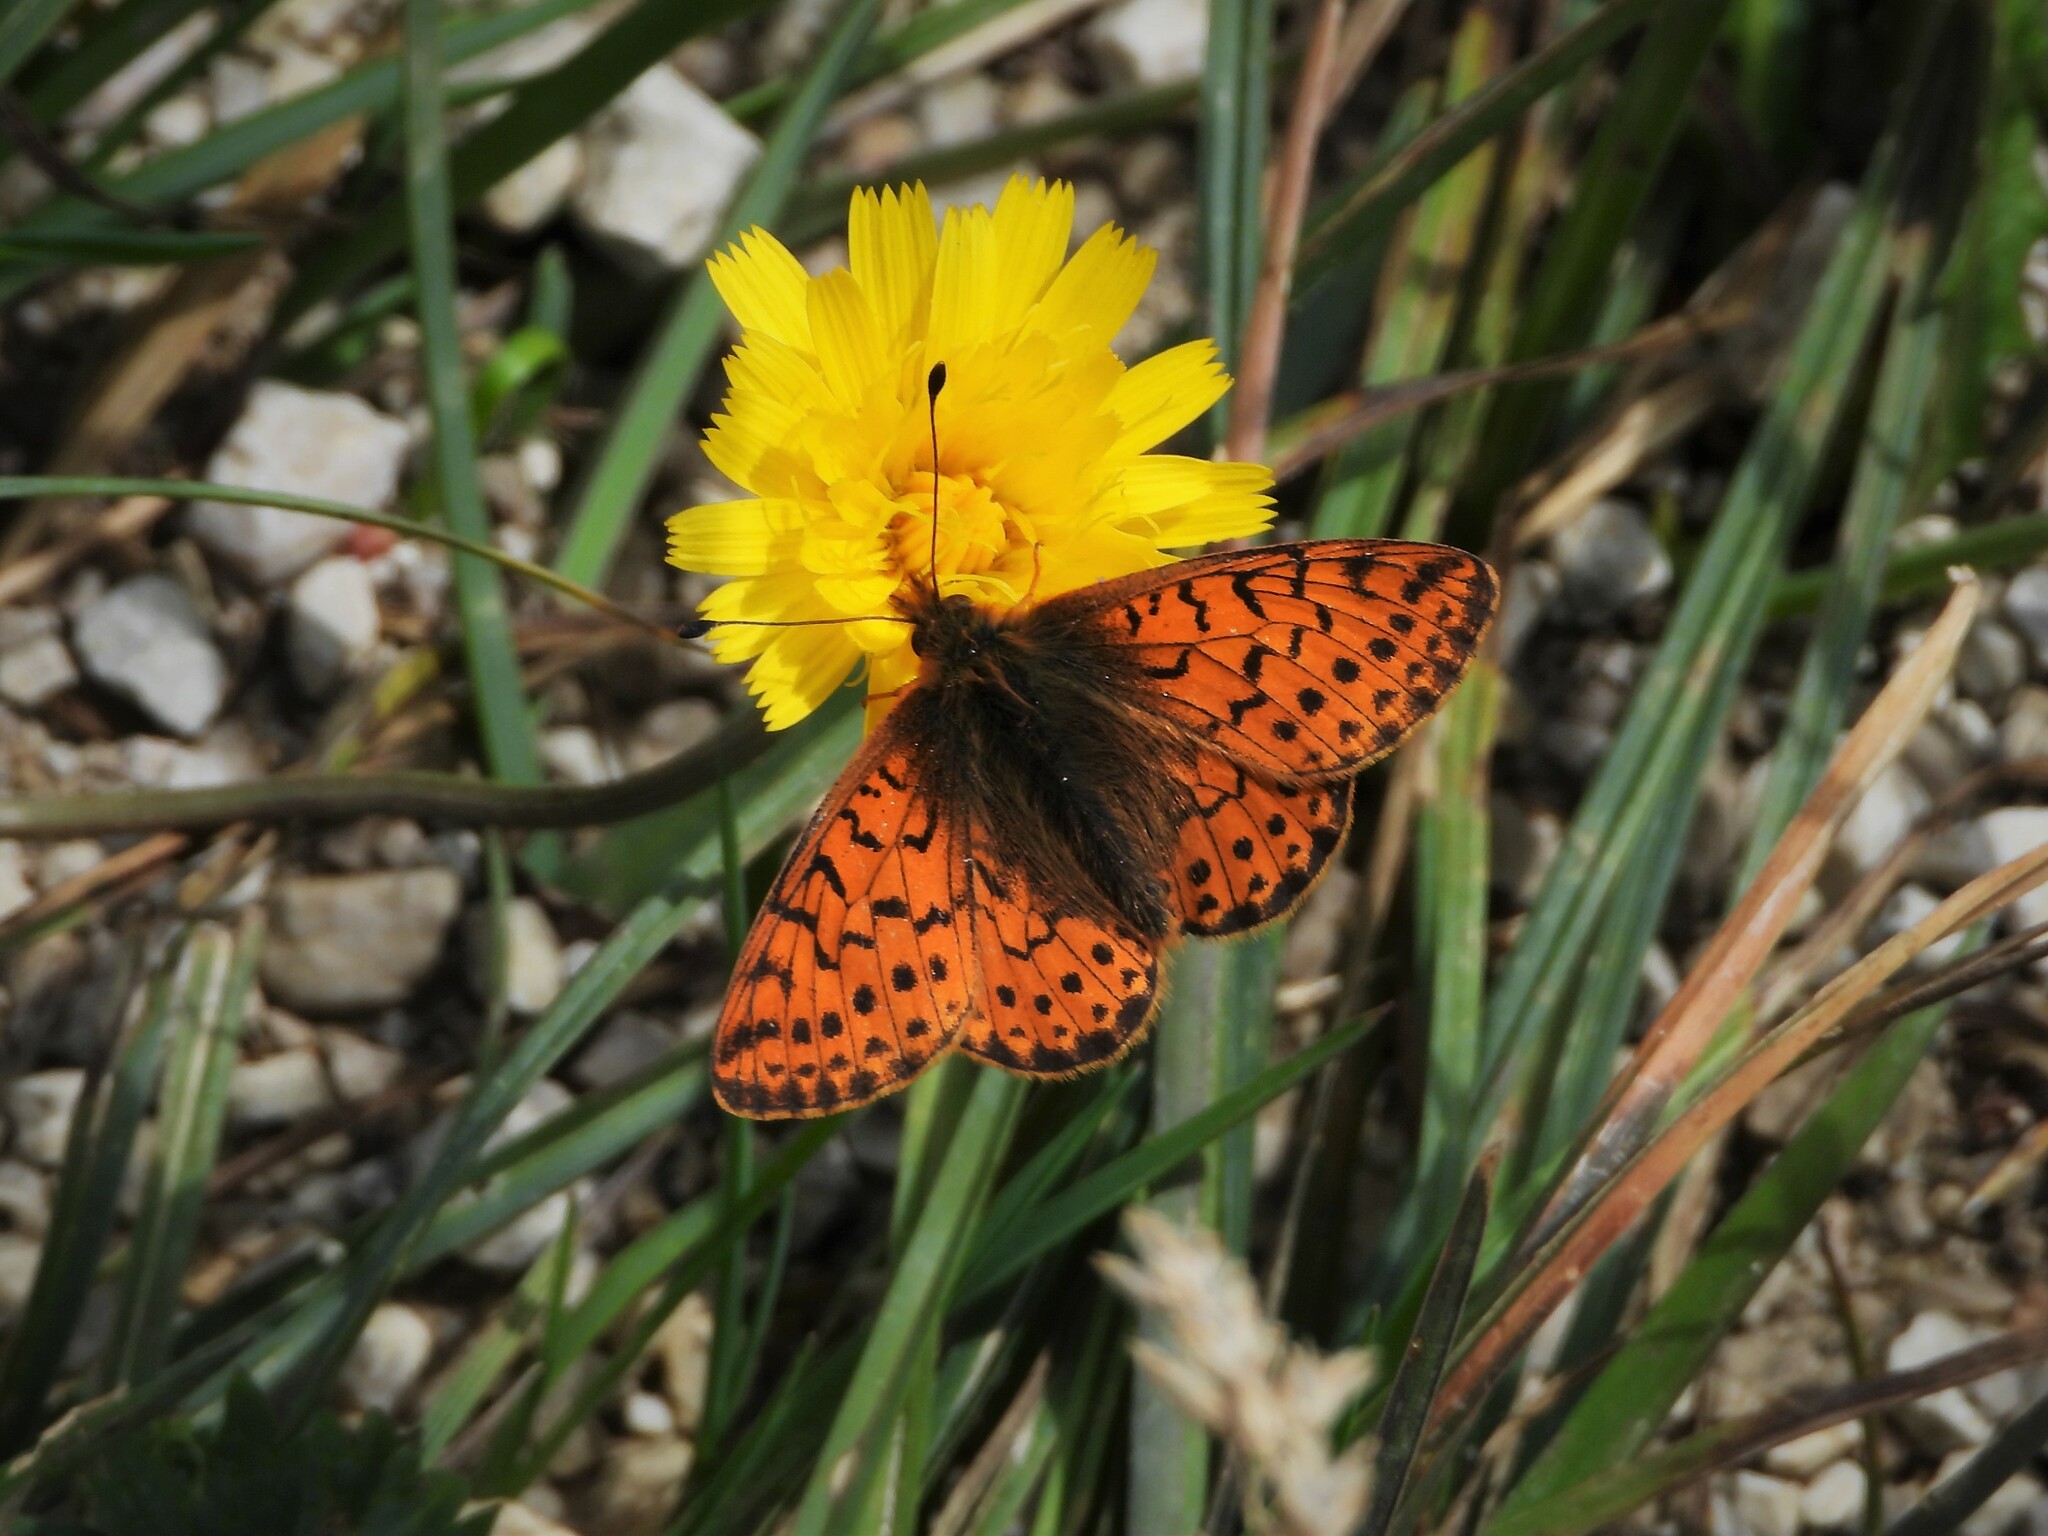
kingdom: Animalia
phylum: Arthropoda
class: Insecta
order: Lepidoptera
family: Nymphalidae
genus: Boloria
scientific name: Boloria pales
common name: Shepherd's fritillary
